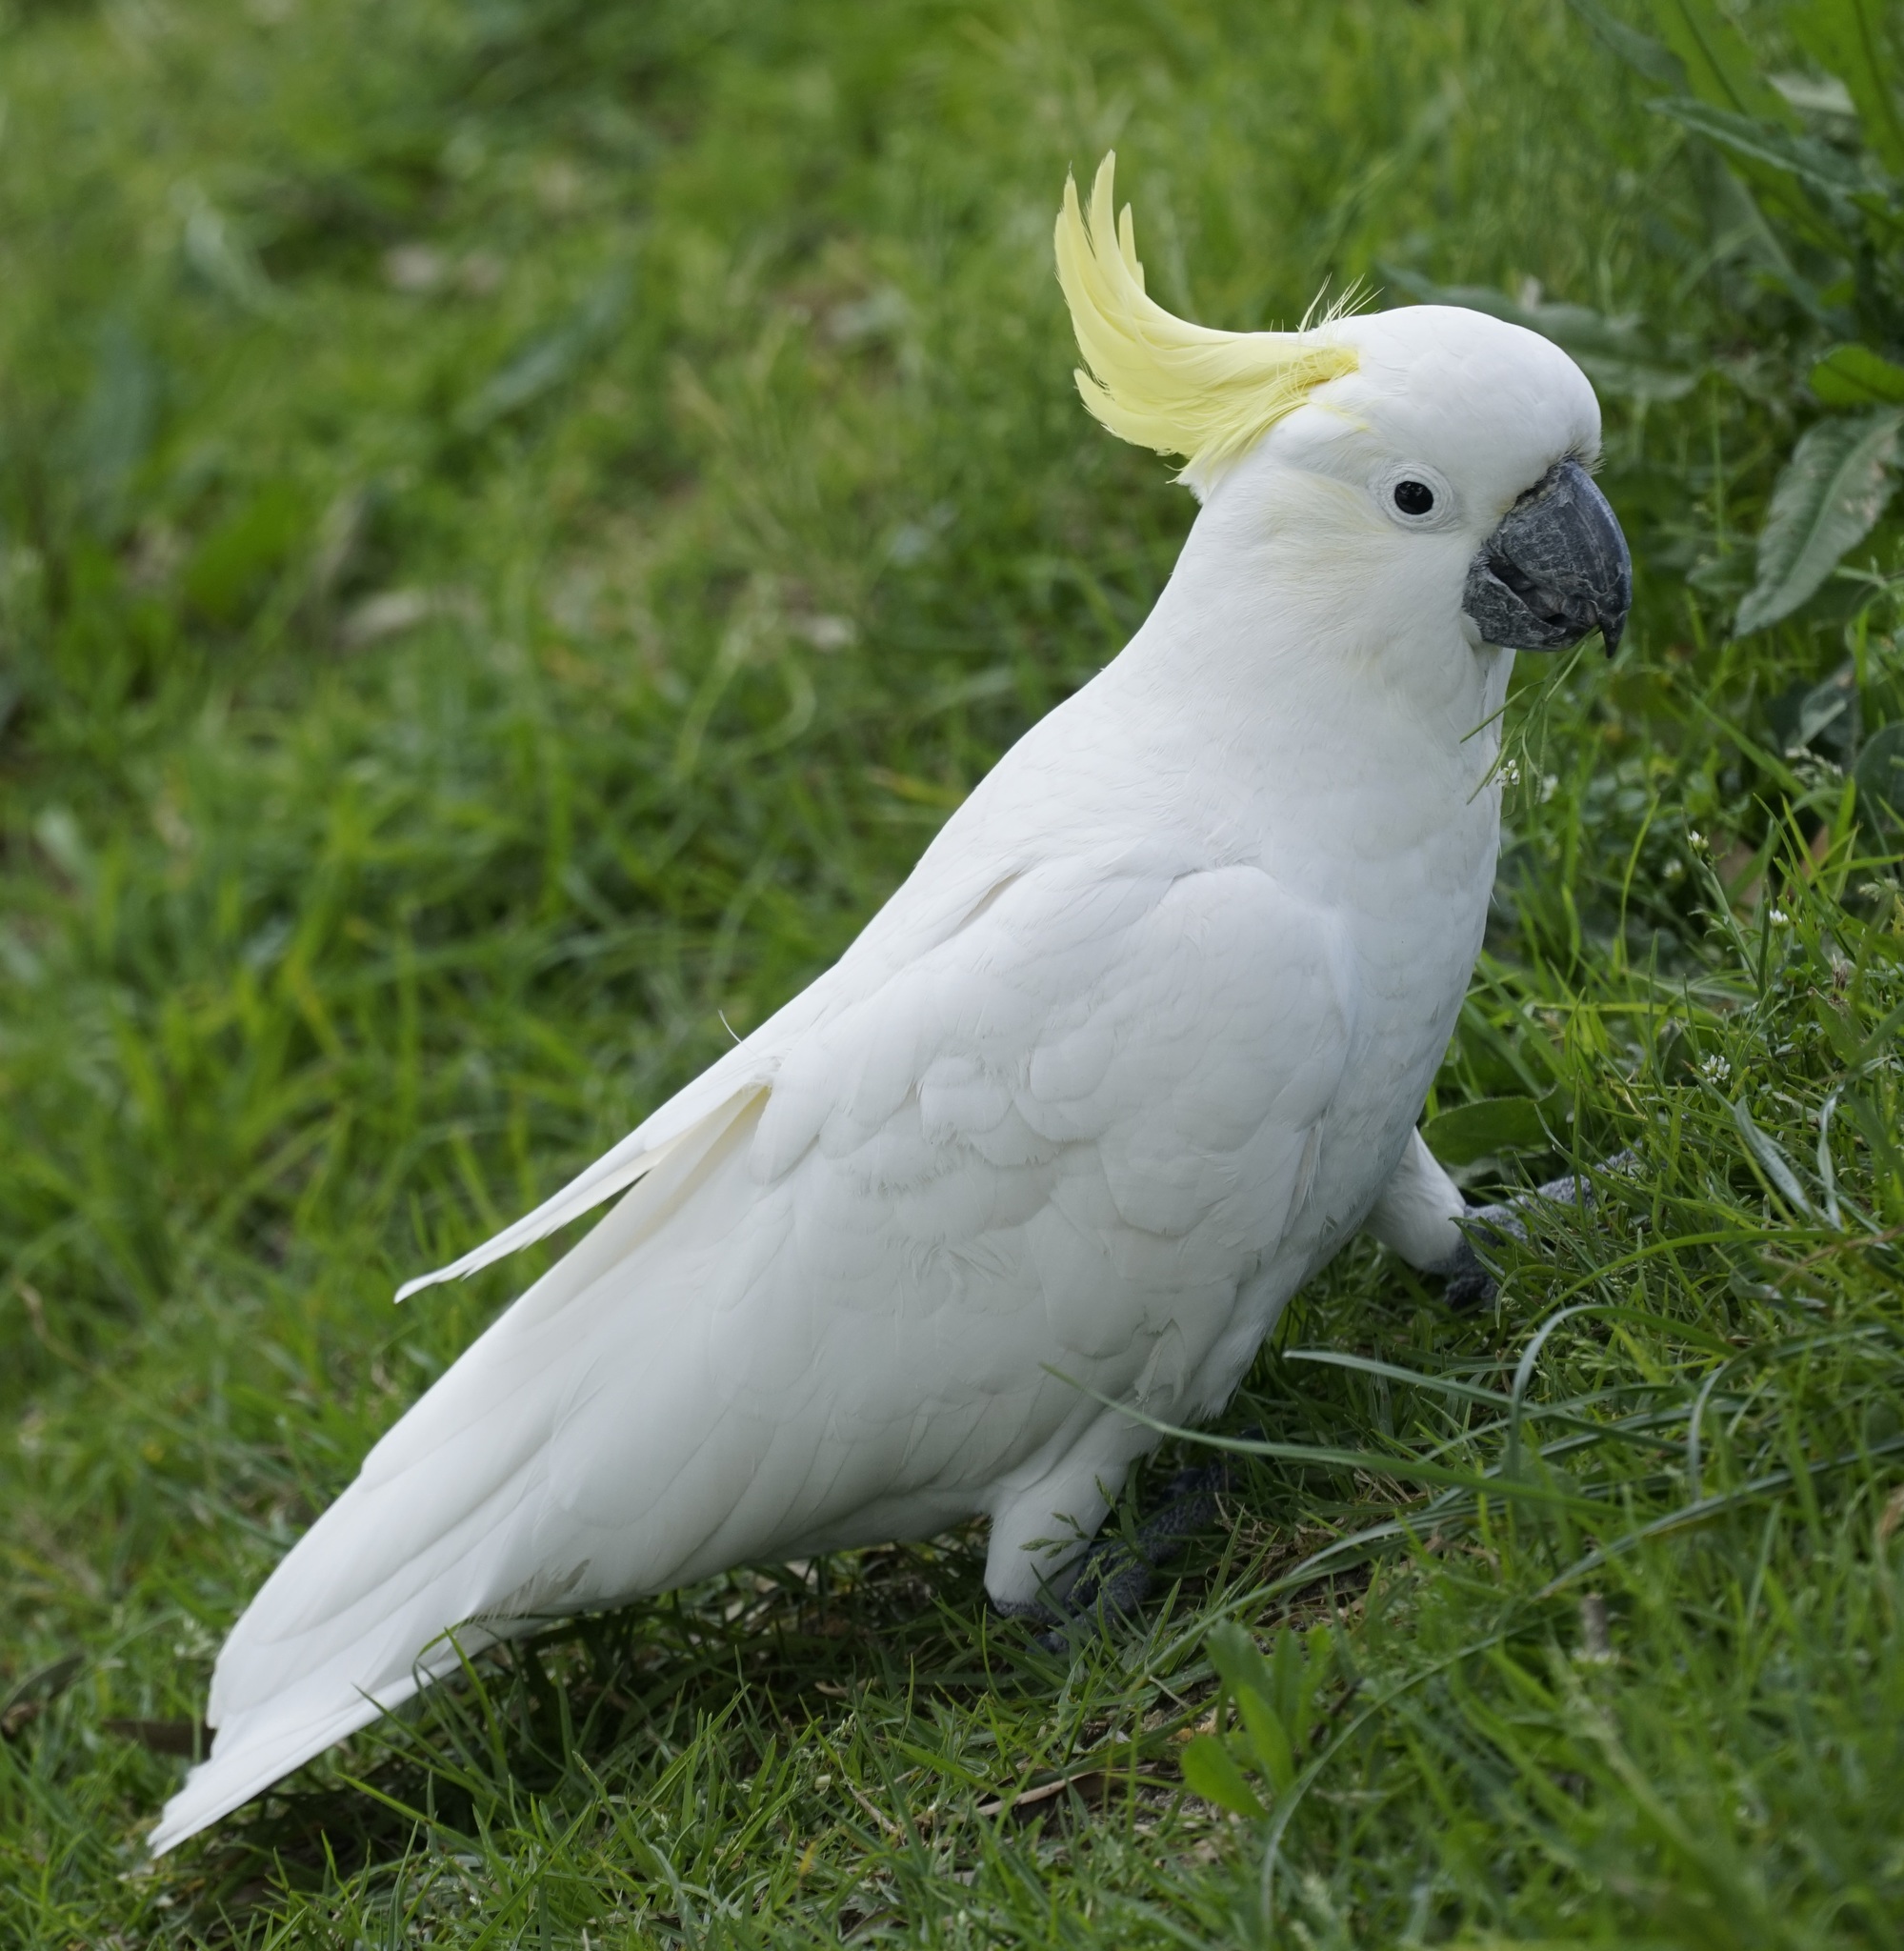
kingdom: Animalia
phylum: Chordata
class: Aves
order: Psittaciformes
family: Psittacidae
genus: Cacatua
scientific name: Cacatua galerita
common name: Sulphur-crested cockatoo
